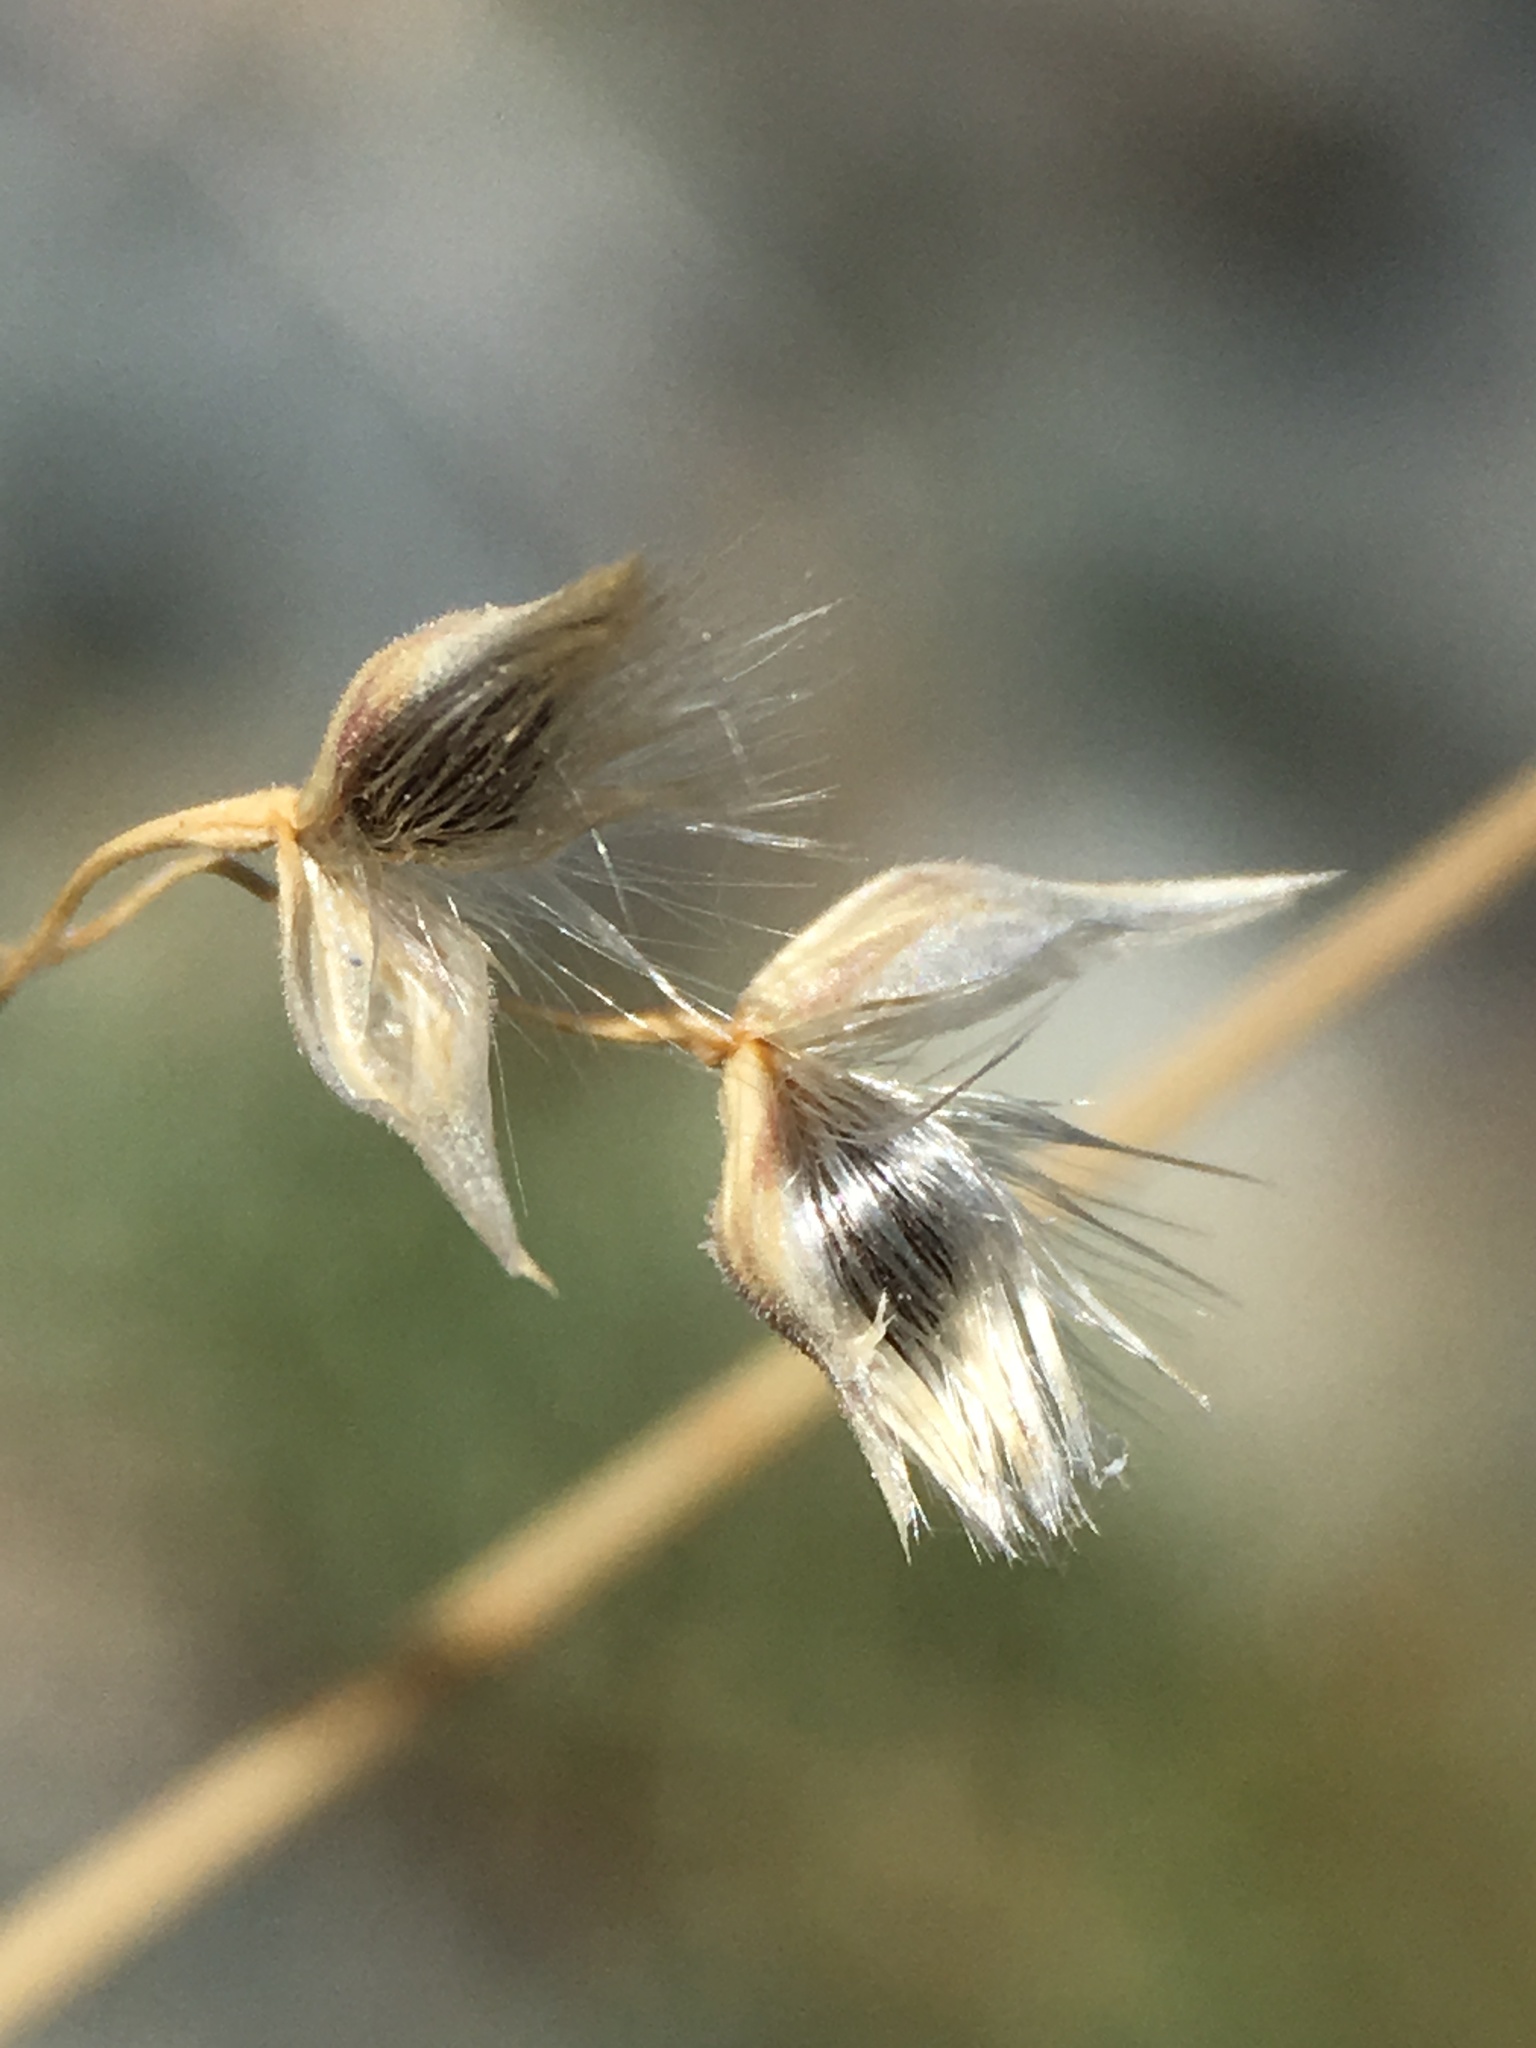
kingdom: Plantae
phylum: Tracheophyta
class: Liliopsida
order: Poales
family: Poaceae
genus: Eriocoma
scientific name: Eriocoma hymenoides
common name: Indian mountain ricegrass
